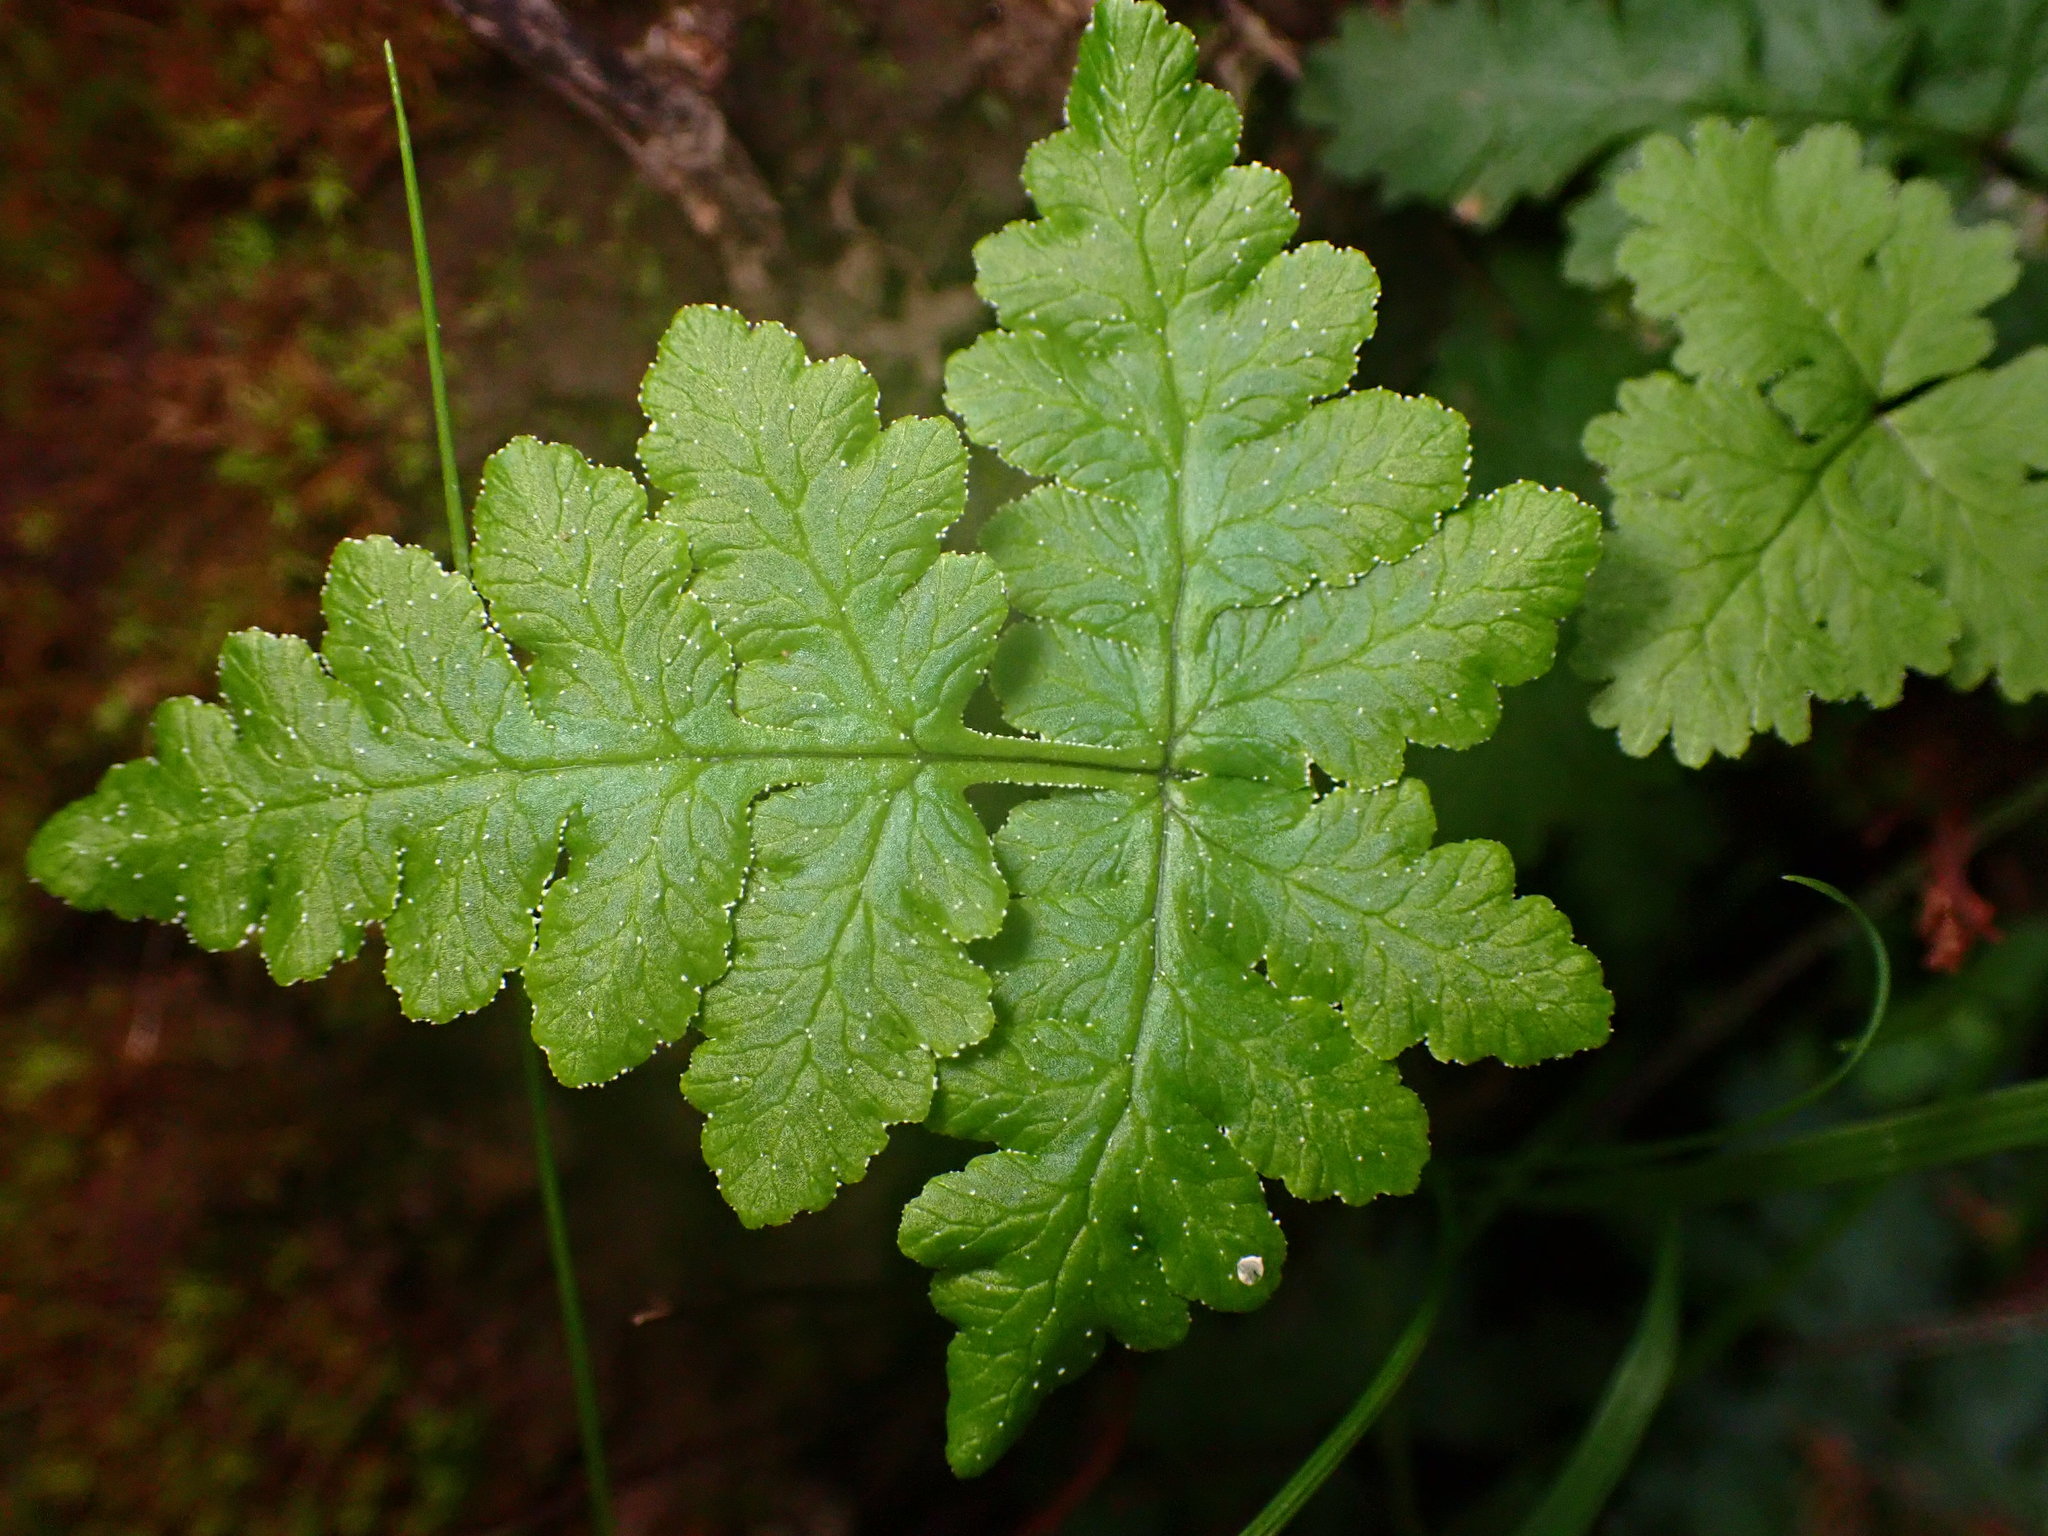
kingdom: Plantae
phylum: Tracheophyta
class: Polypodiopsida
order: Polypodiales
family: Pteridaceae
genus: Pentagramma
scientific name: Pentagramma triangularis
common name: Gold fern
